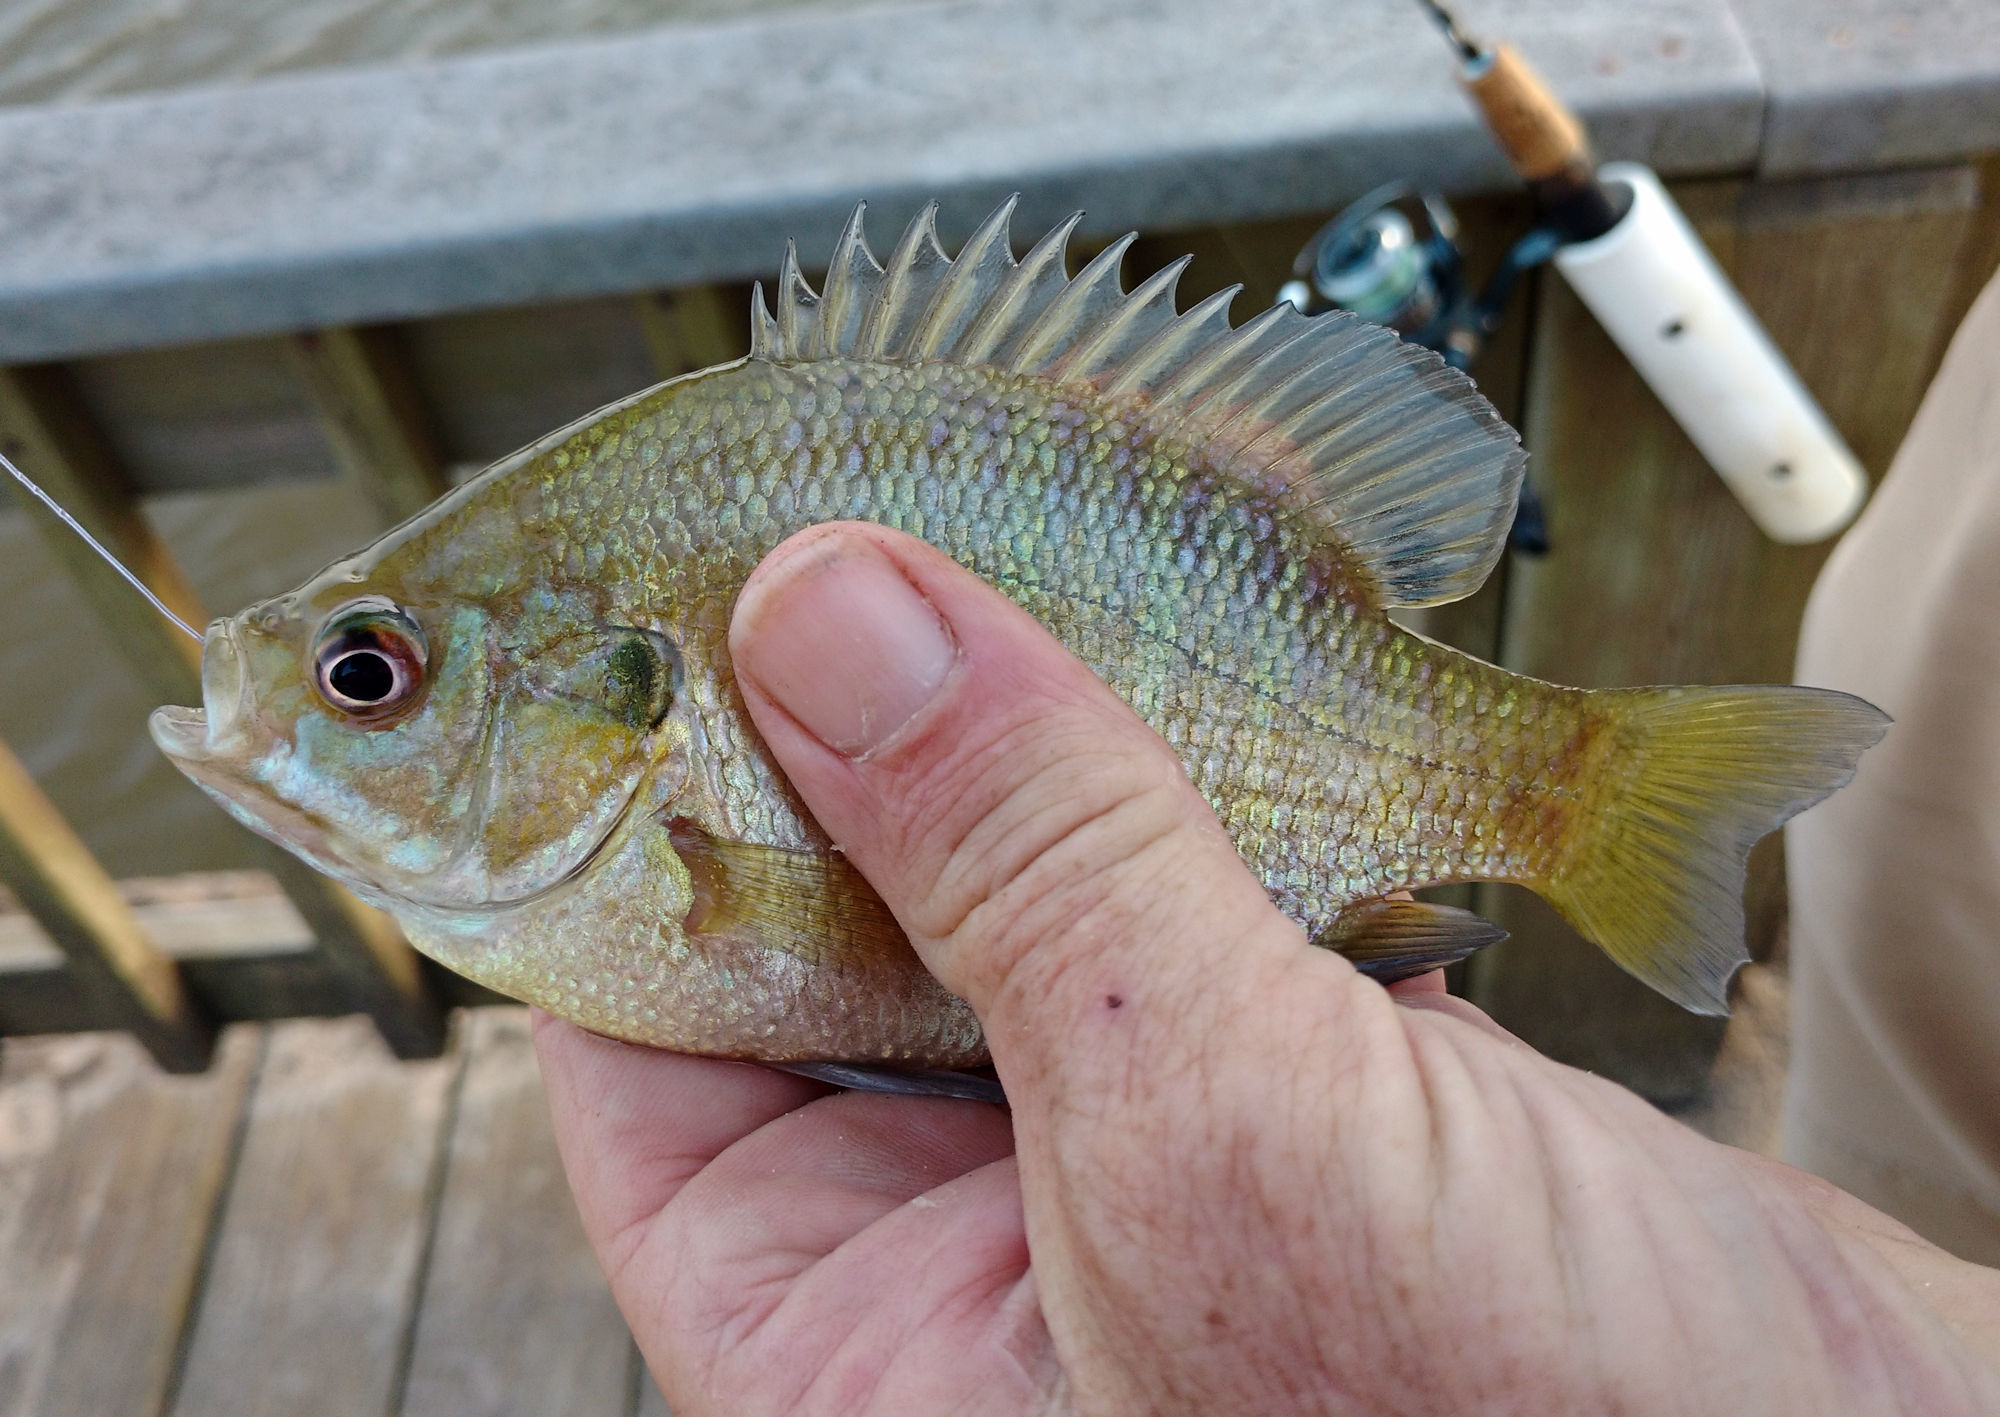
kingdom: Animalia
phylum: Chordata
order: Perciformes
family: Centrarchidae
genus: Lepomis
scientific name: Lepomis macrochirus
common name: Bluegill
